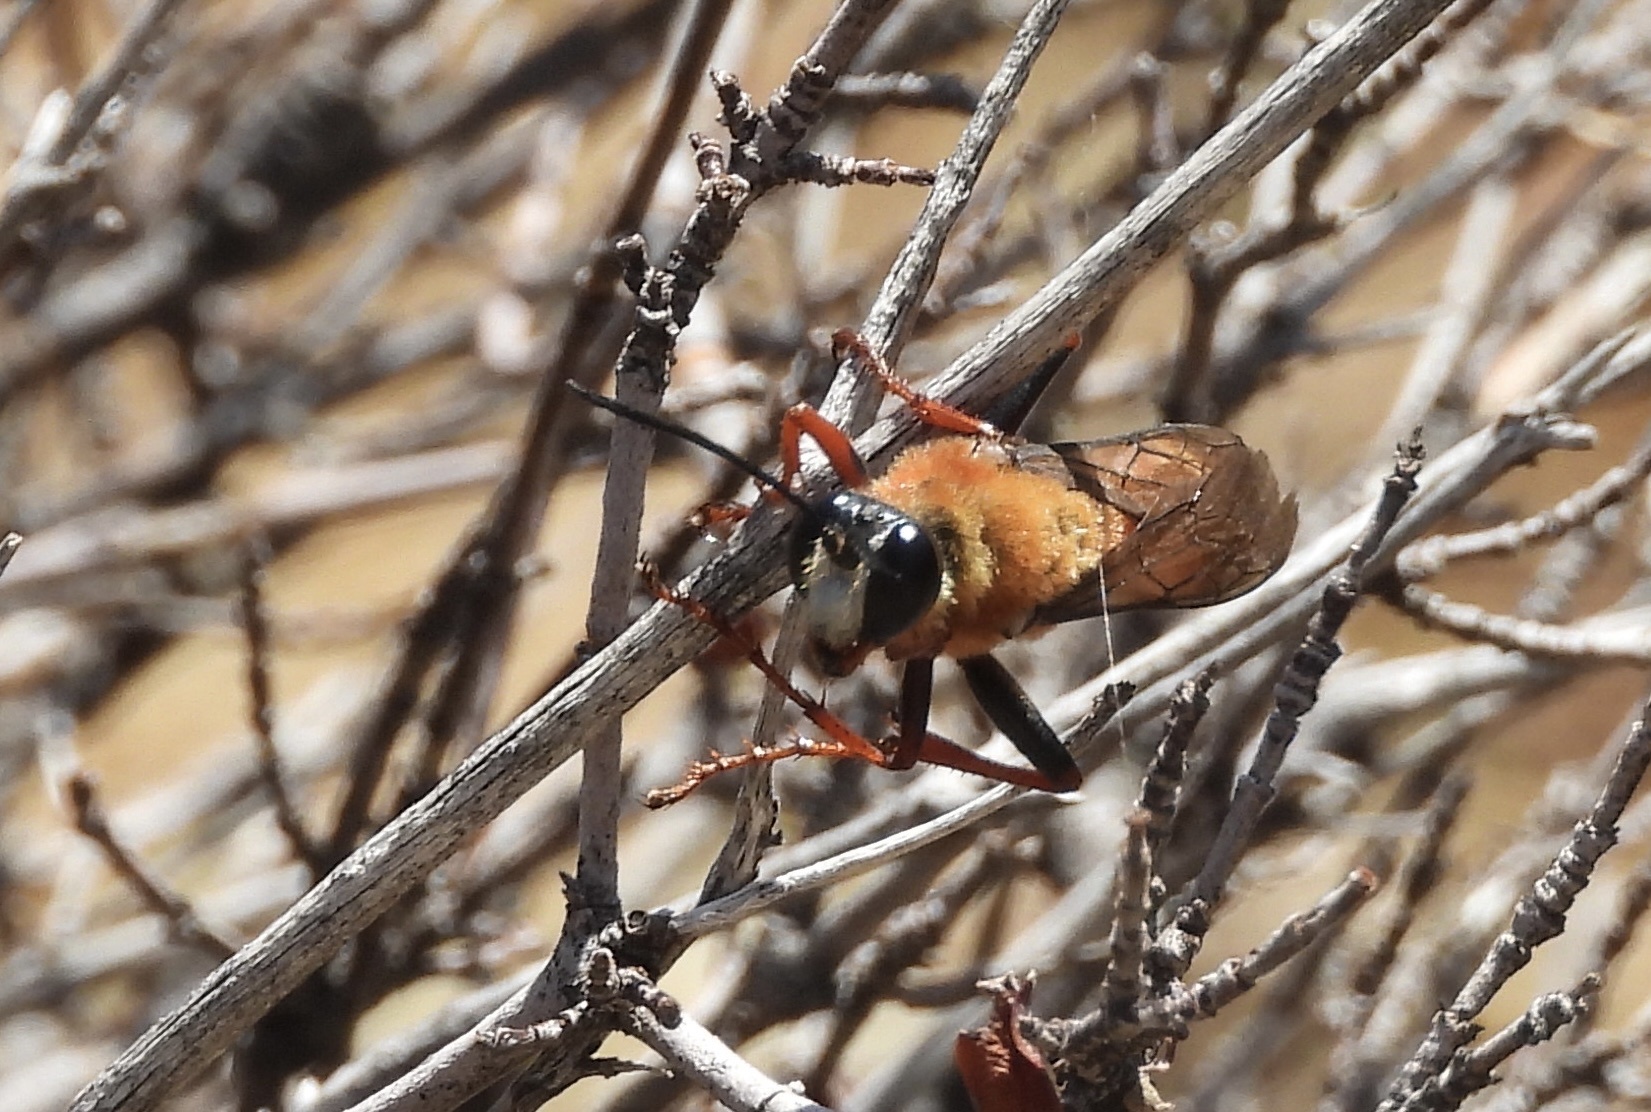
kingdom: Animalia
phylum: Arthropoda
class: Insecta
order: Hymenoptera
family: Sphecidae
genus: Sphex
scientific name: Sphex latreillei
